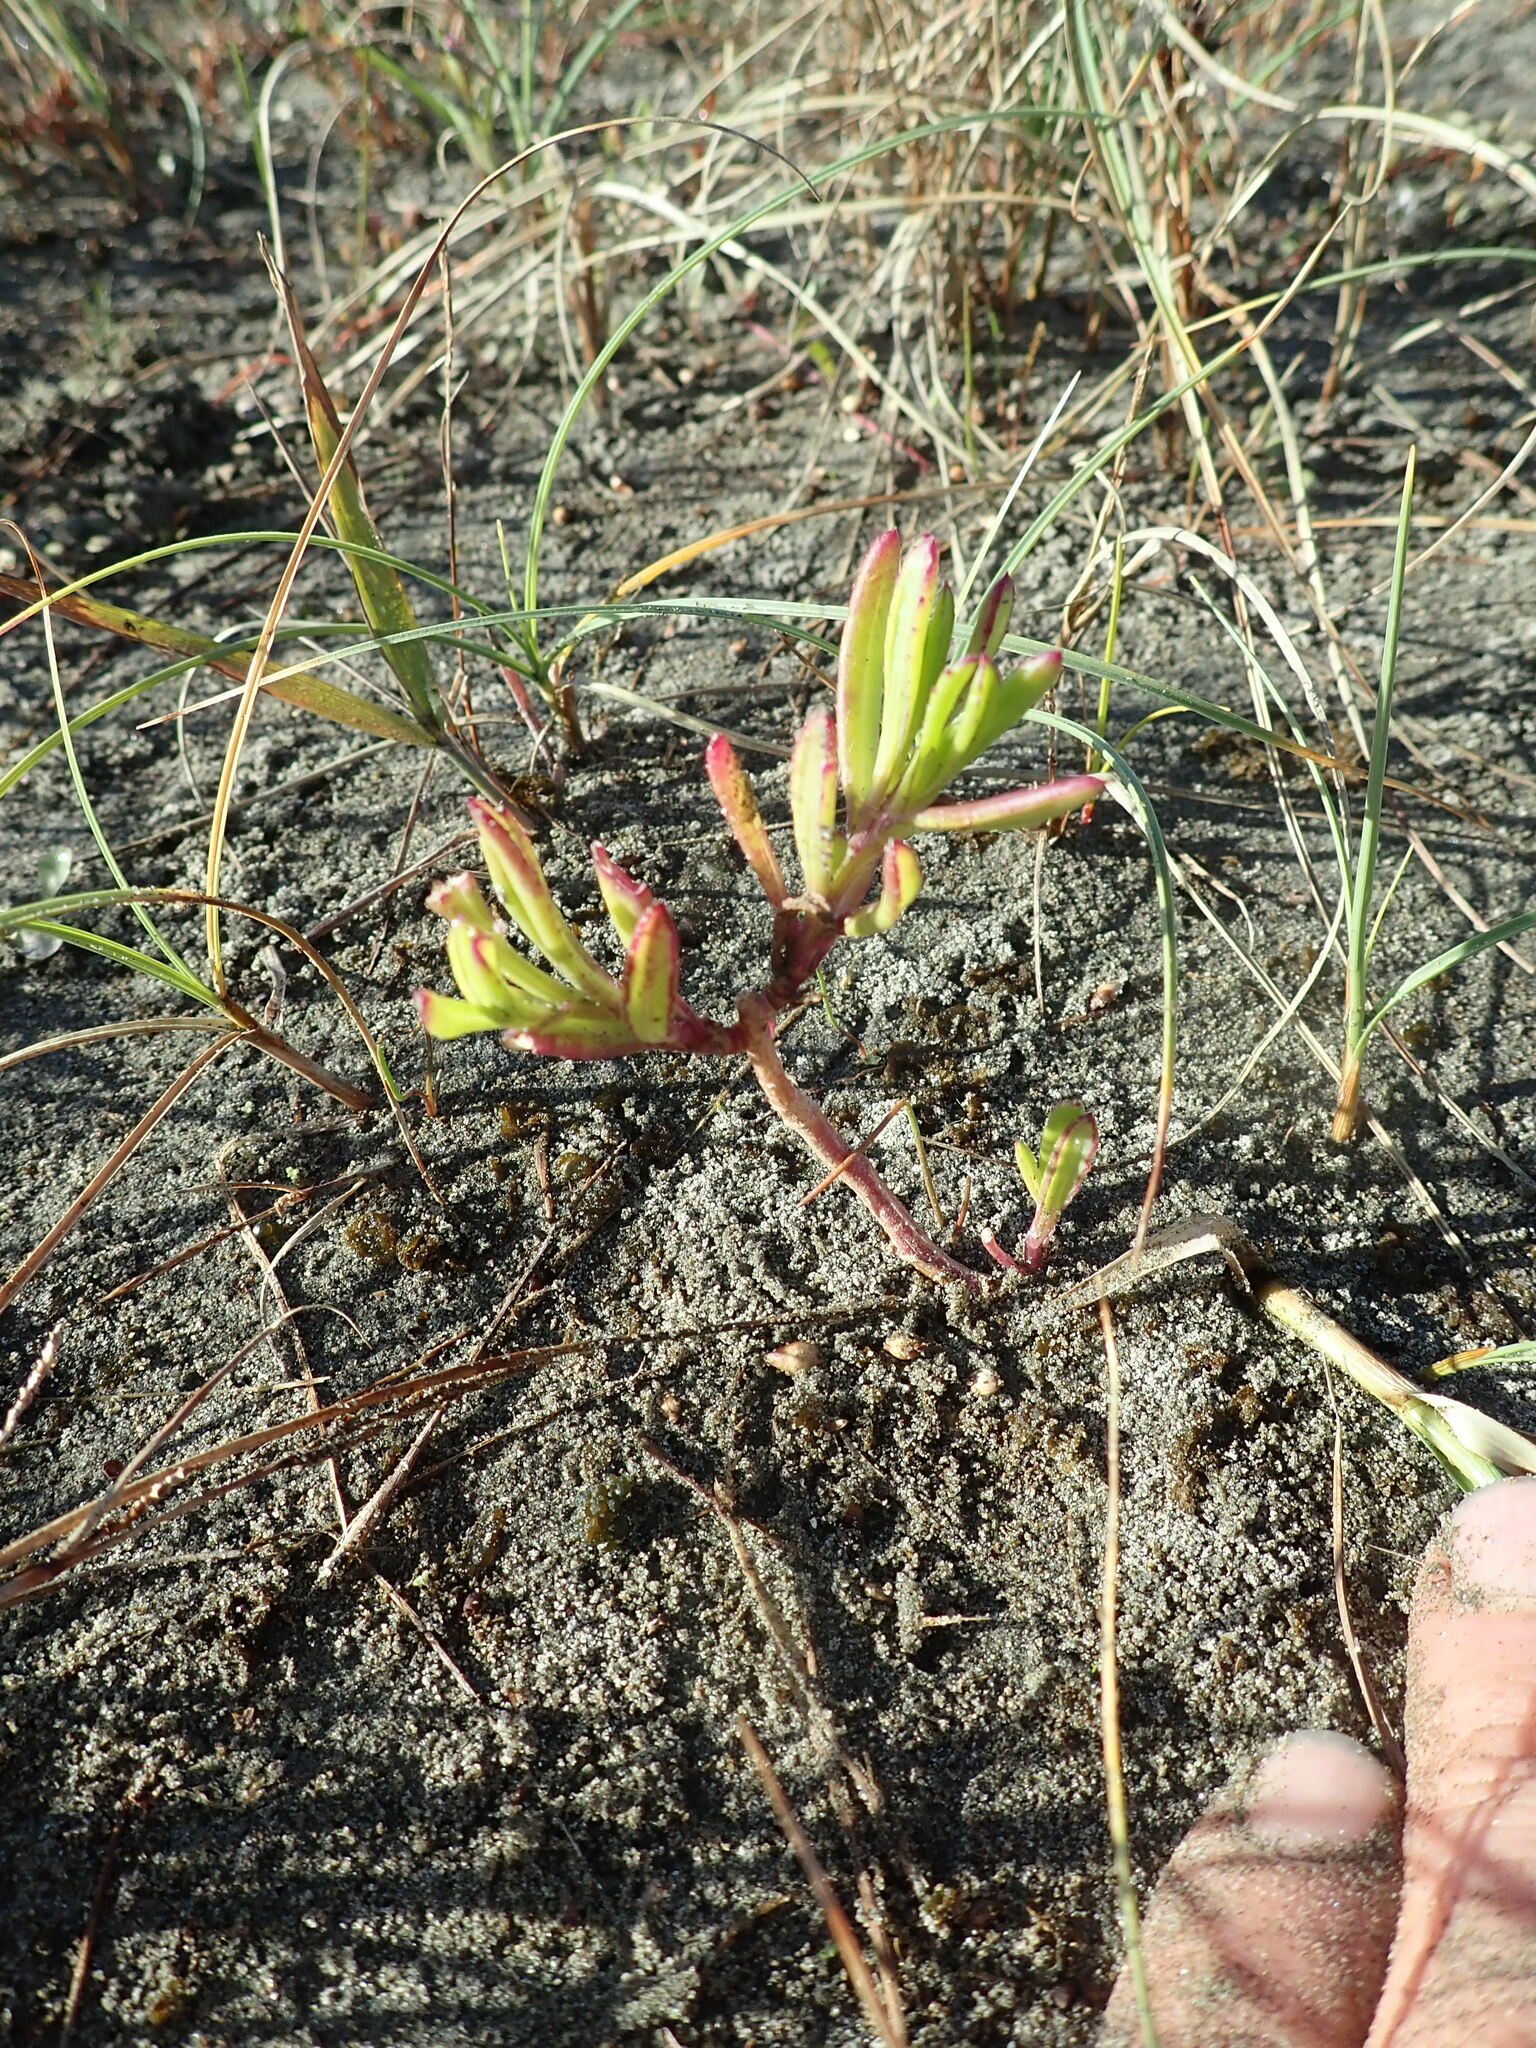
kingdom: Plantae
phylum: Tracheophyta
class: Magnoliopsida
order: Asterales
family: Asteraceae
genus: Cotula
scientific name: Cotula coronopifolia
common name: Buttonweed
